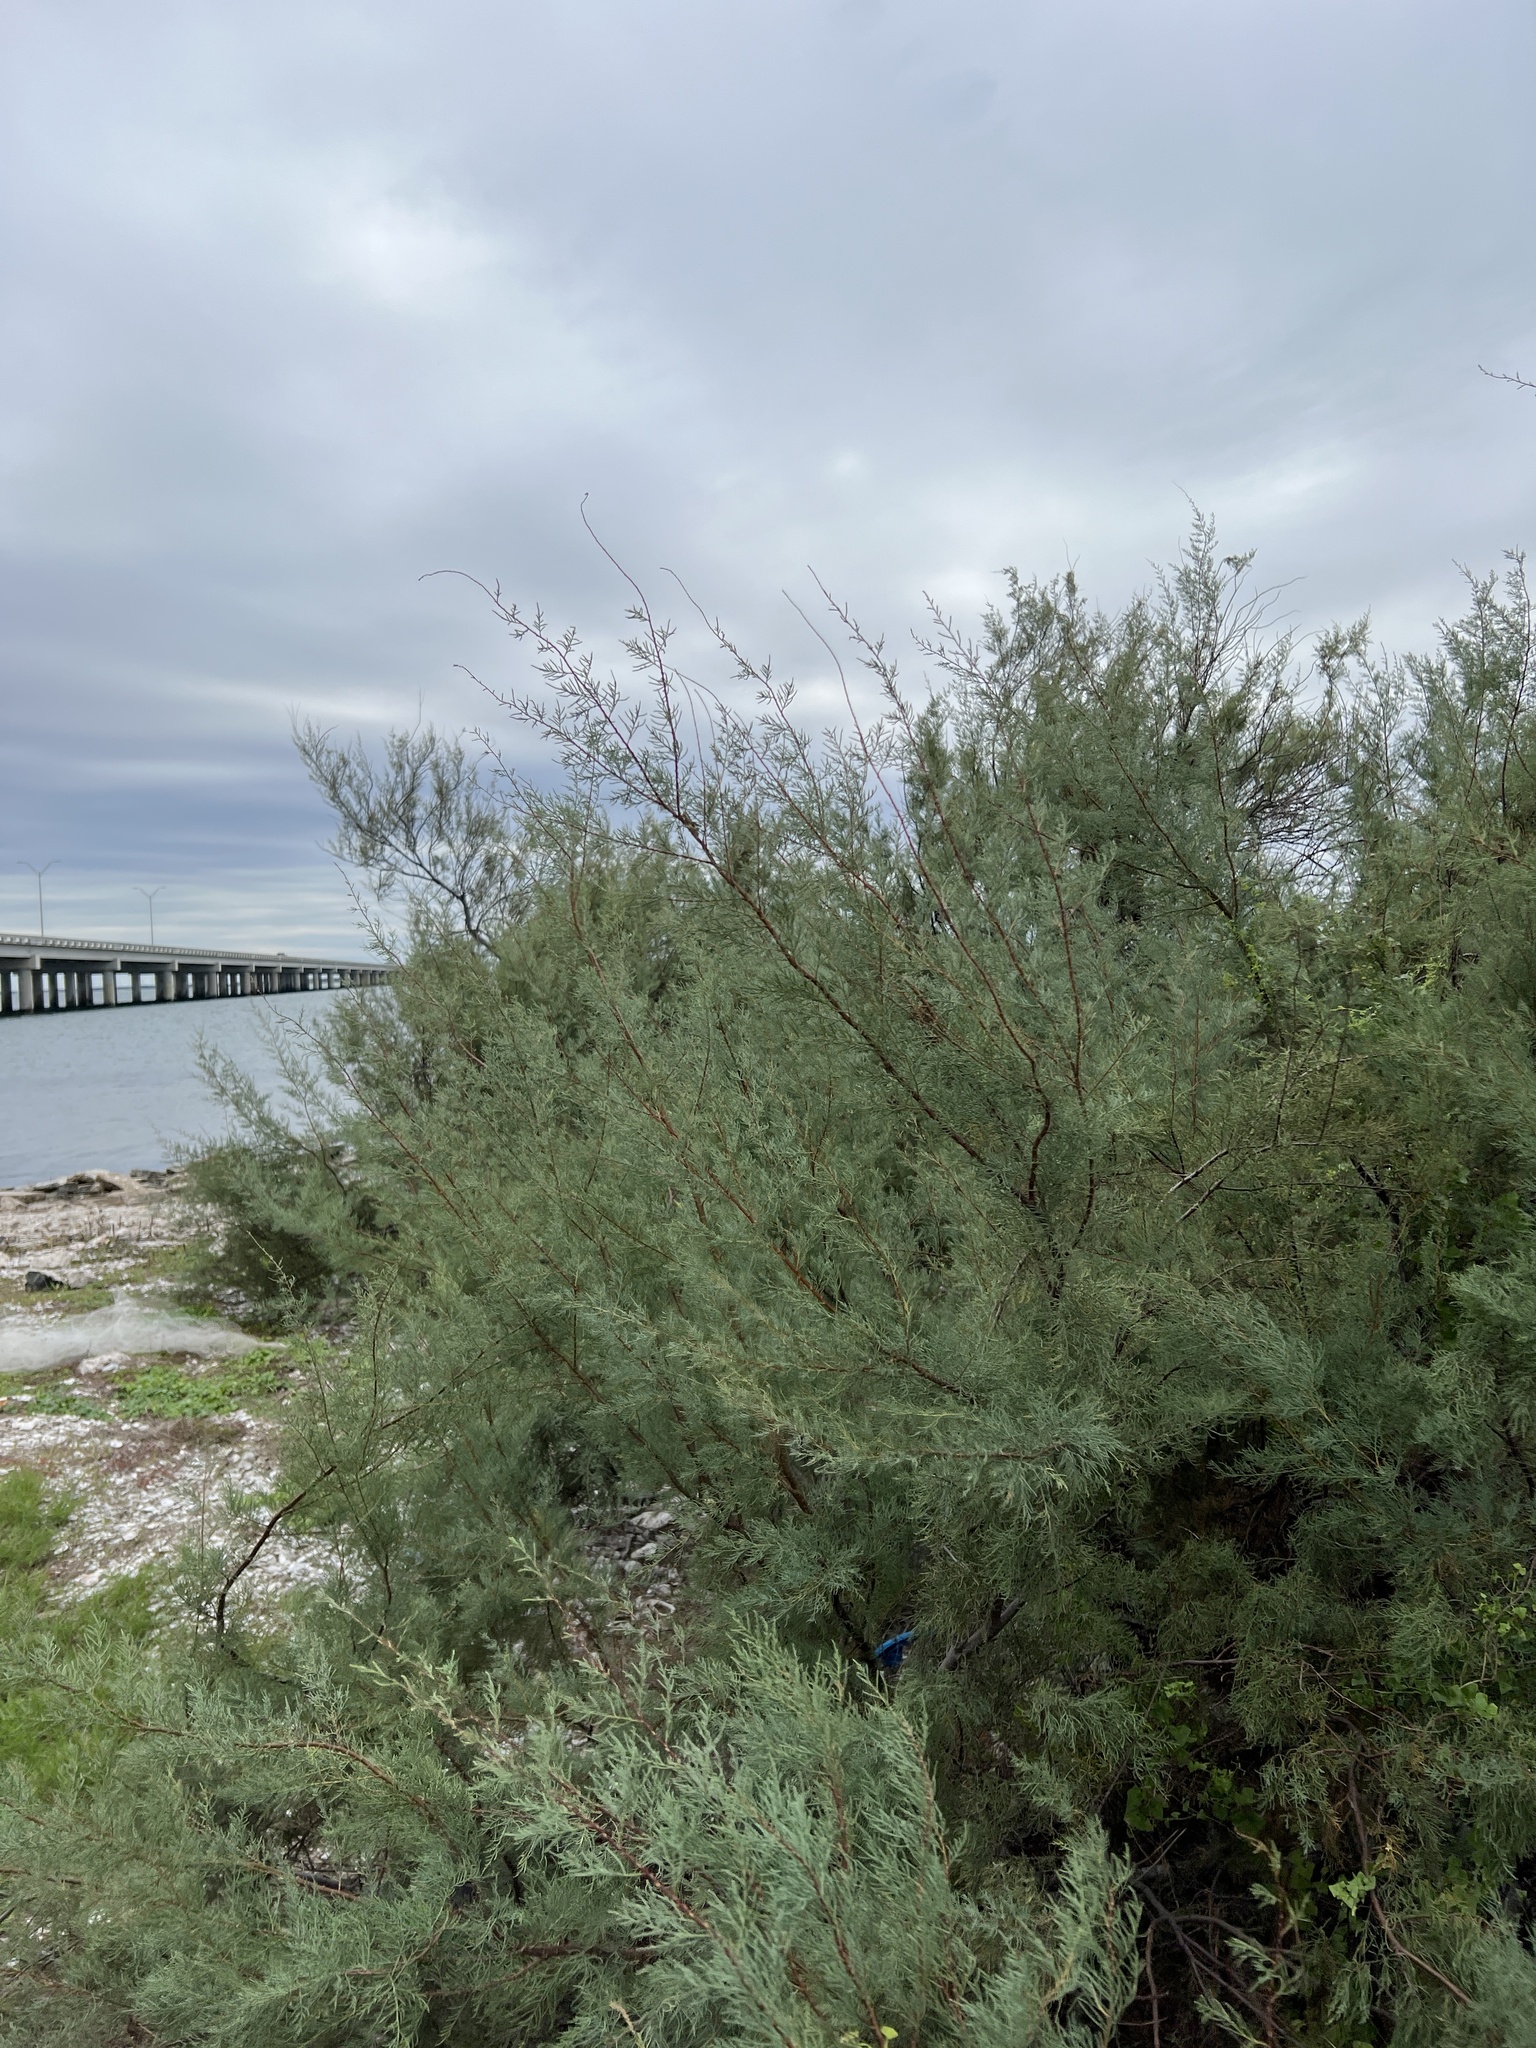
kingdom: Plantae
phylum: Tracheophyta
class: Magnoliopsida
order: Caryophyllales
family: Tamaricaceae
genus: Tamarix
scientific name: Tamarix ramosissima
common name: Pink tamarisk
